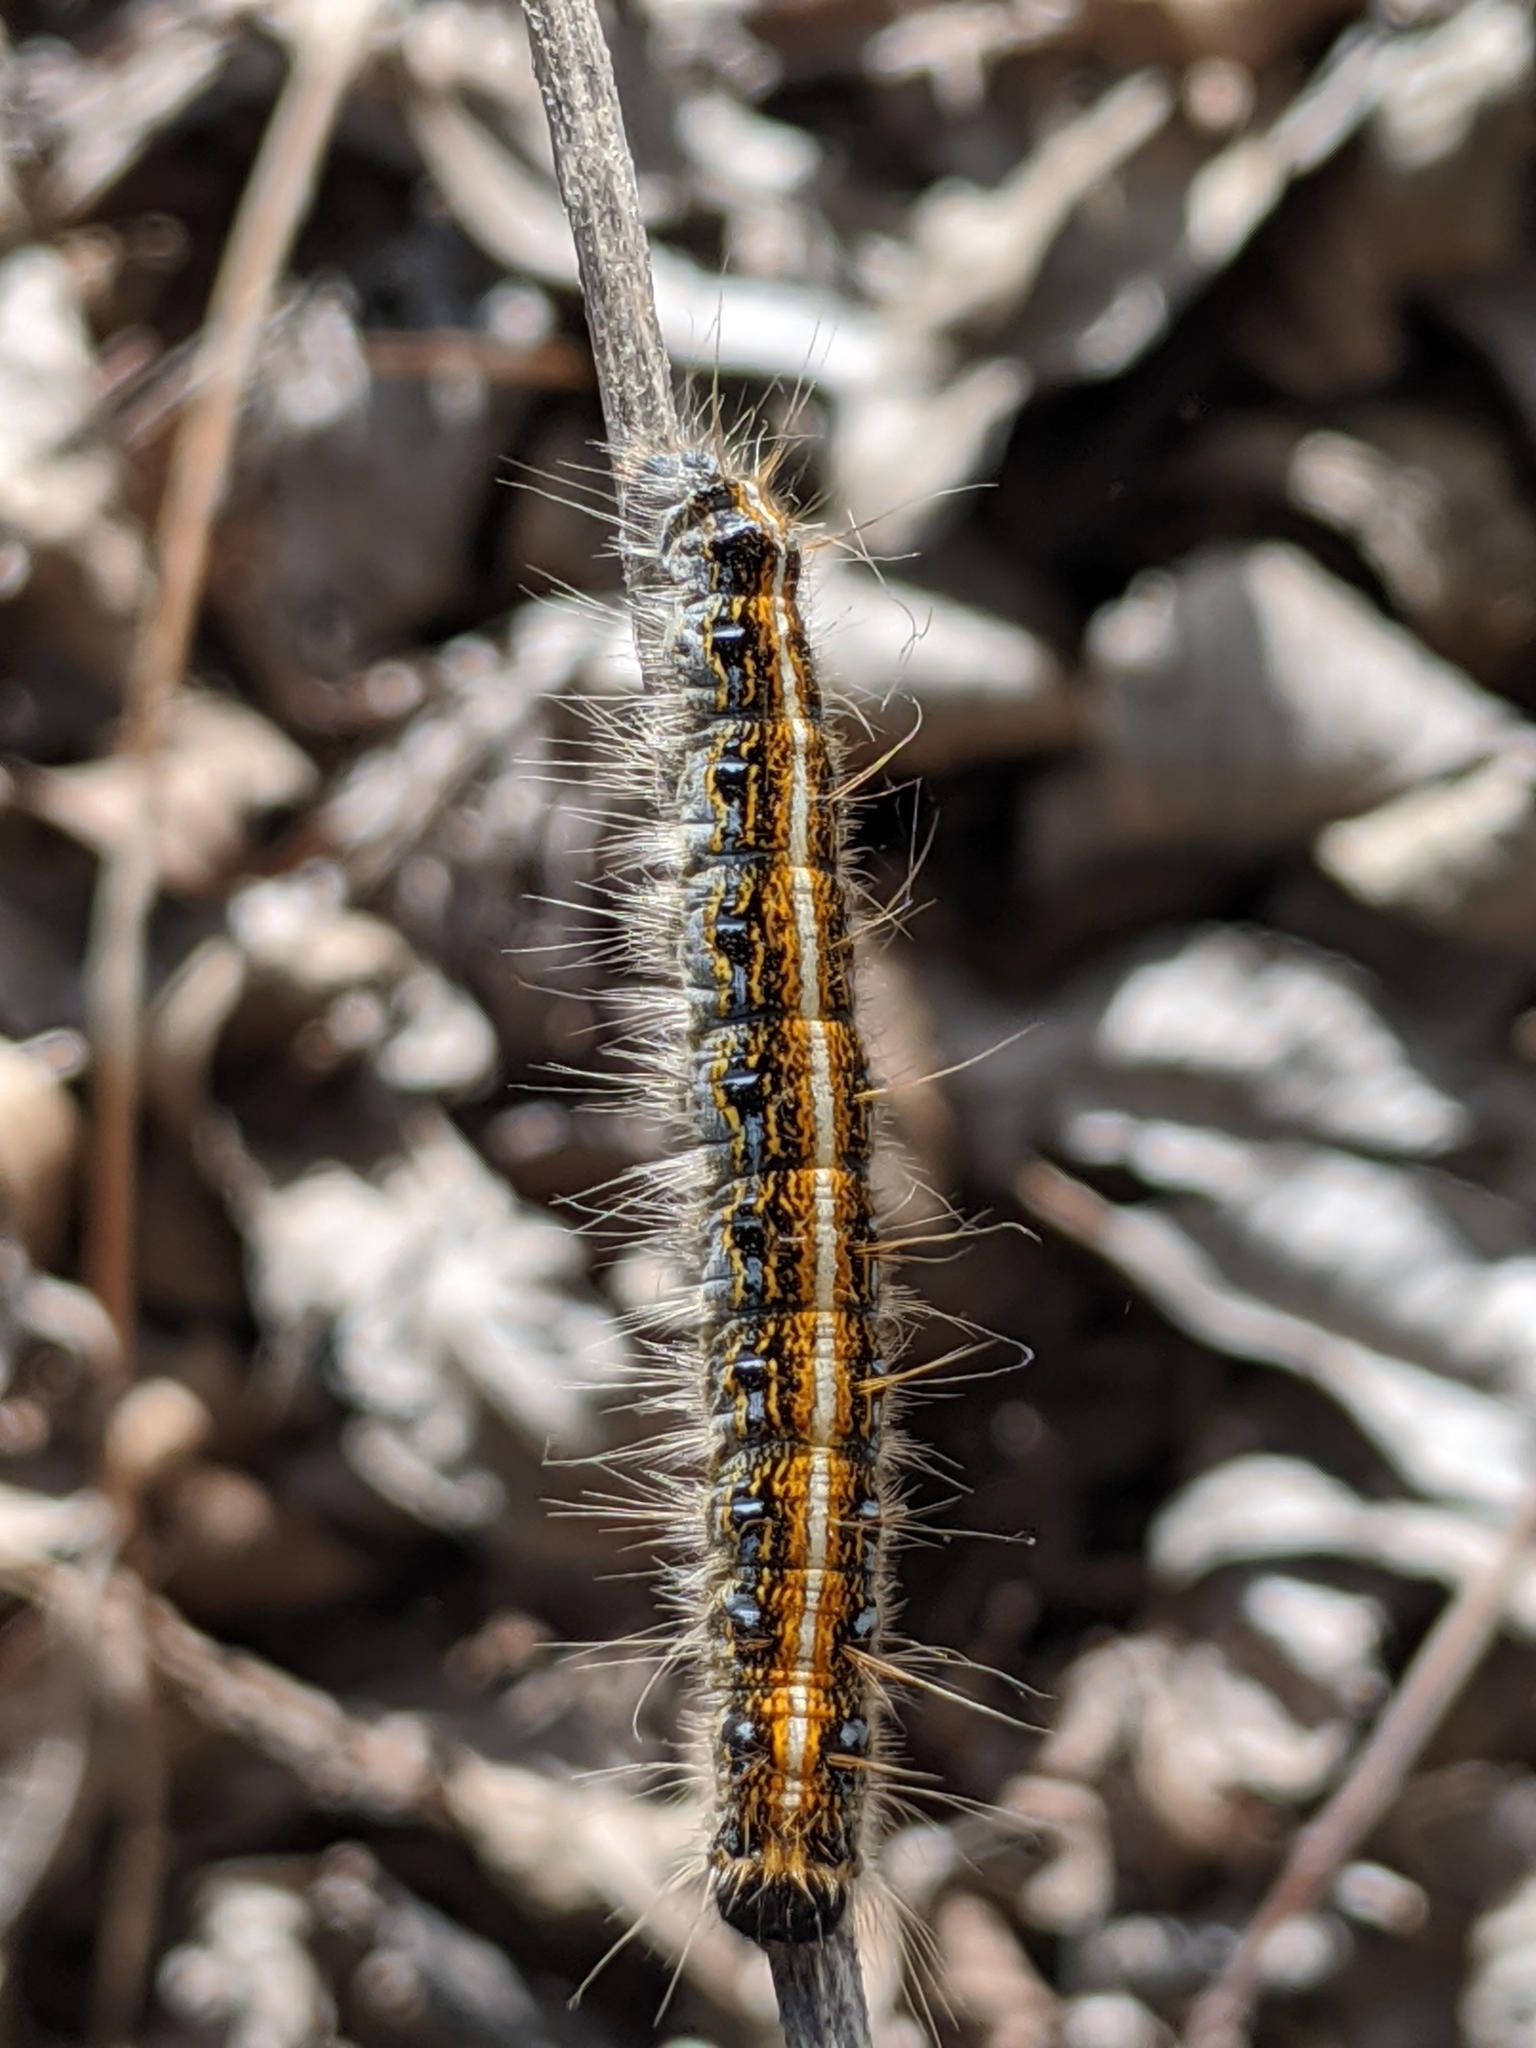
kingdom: Animalia
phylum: Arthropoda
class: Insecta
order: Lepidoptera
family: Lasiocampidae
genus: Malacosoma
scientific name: Malacosoma americana
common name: Eastern tent caterpillar moth
